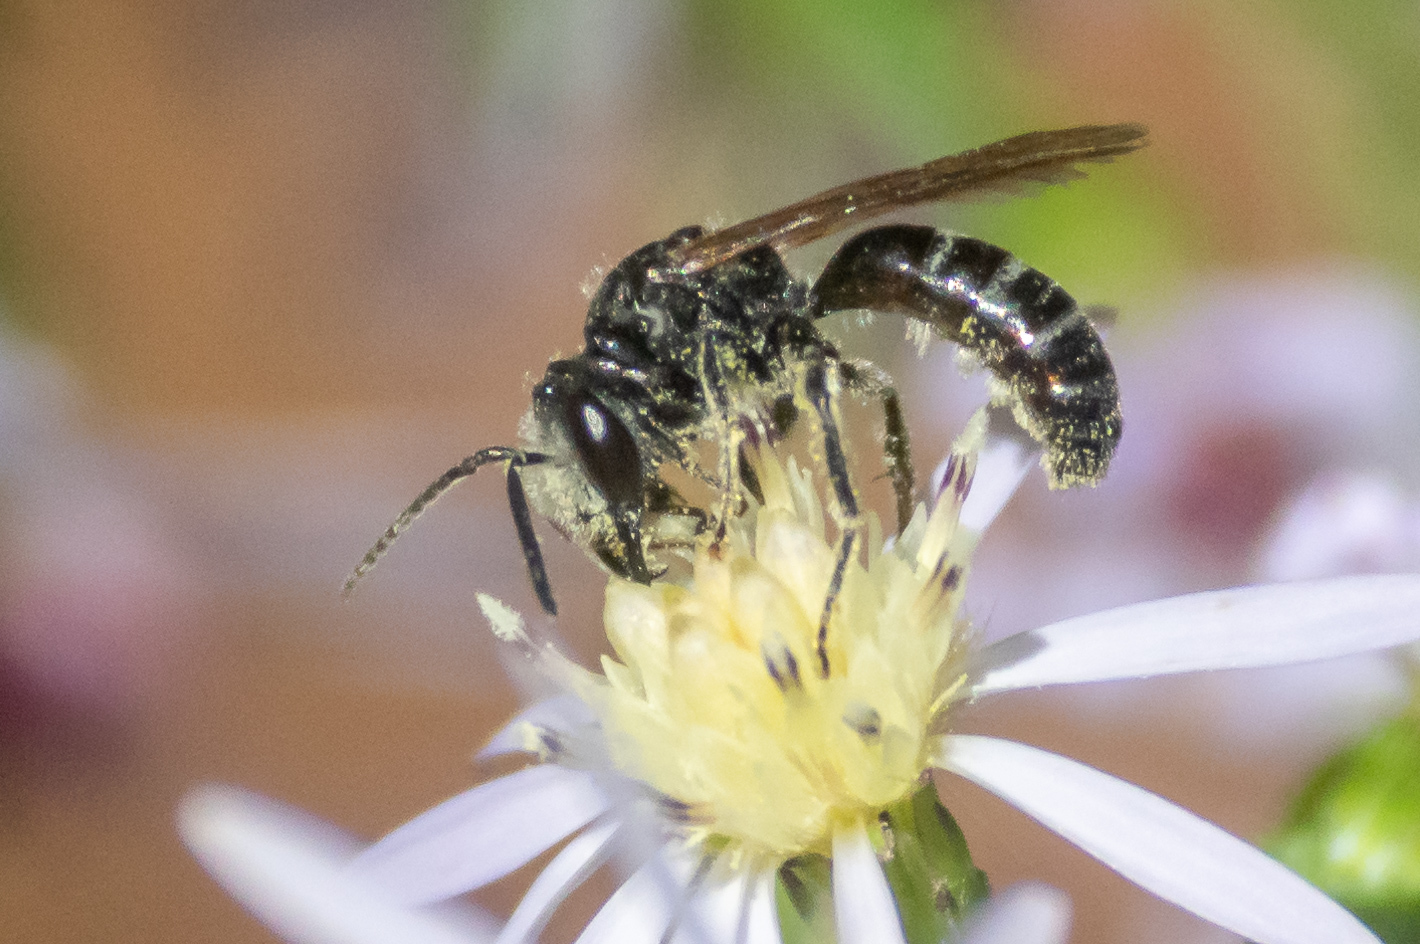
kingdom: Animalia
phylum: Arthropoda
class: Insecta
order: Hymenoptera
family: Halictidae
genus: Lasioglossum
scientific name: Lasioglossum coriaceum
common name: Leathery sweat bee
